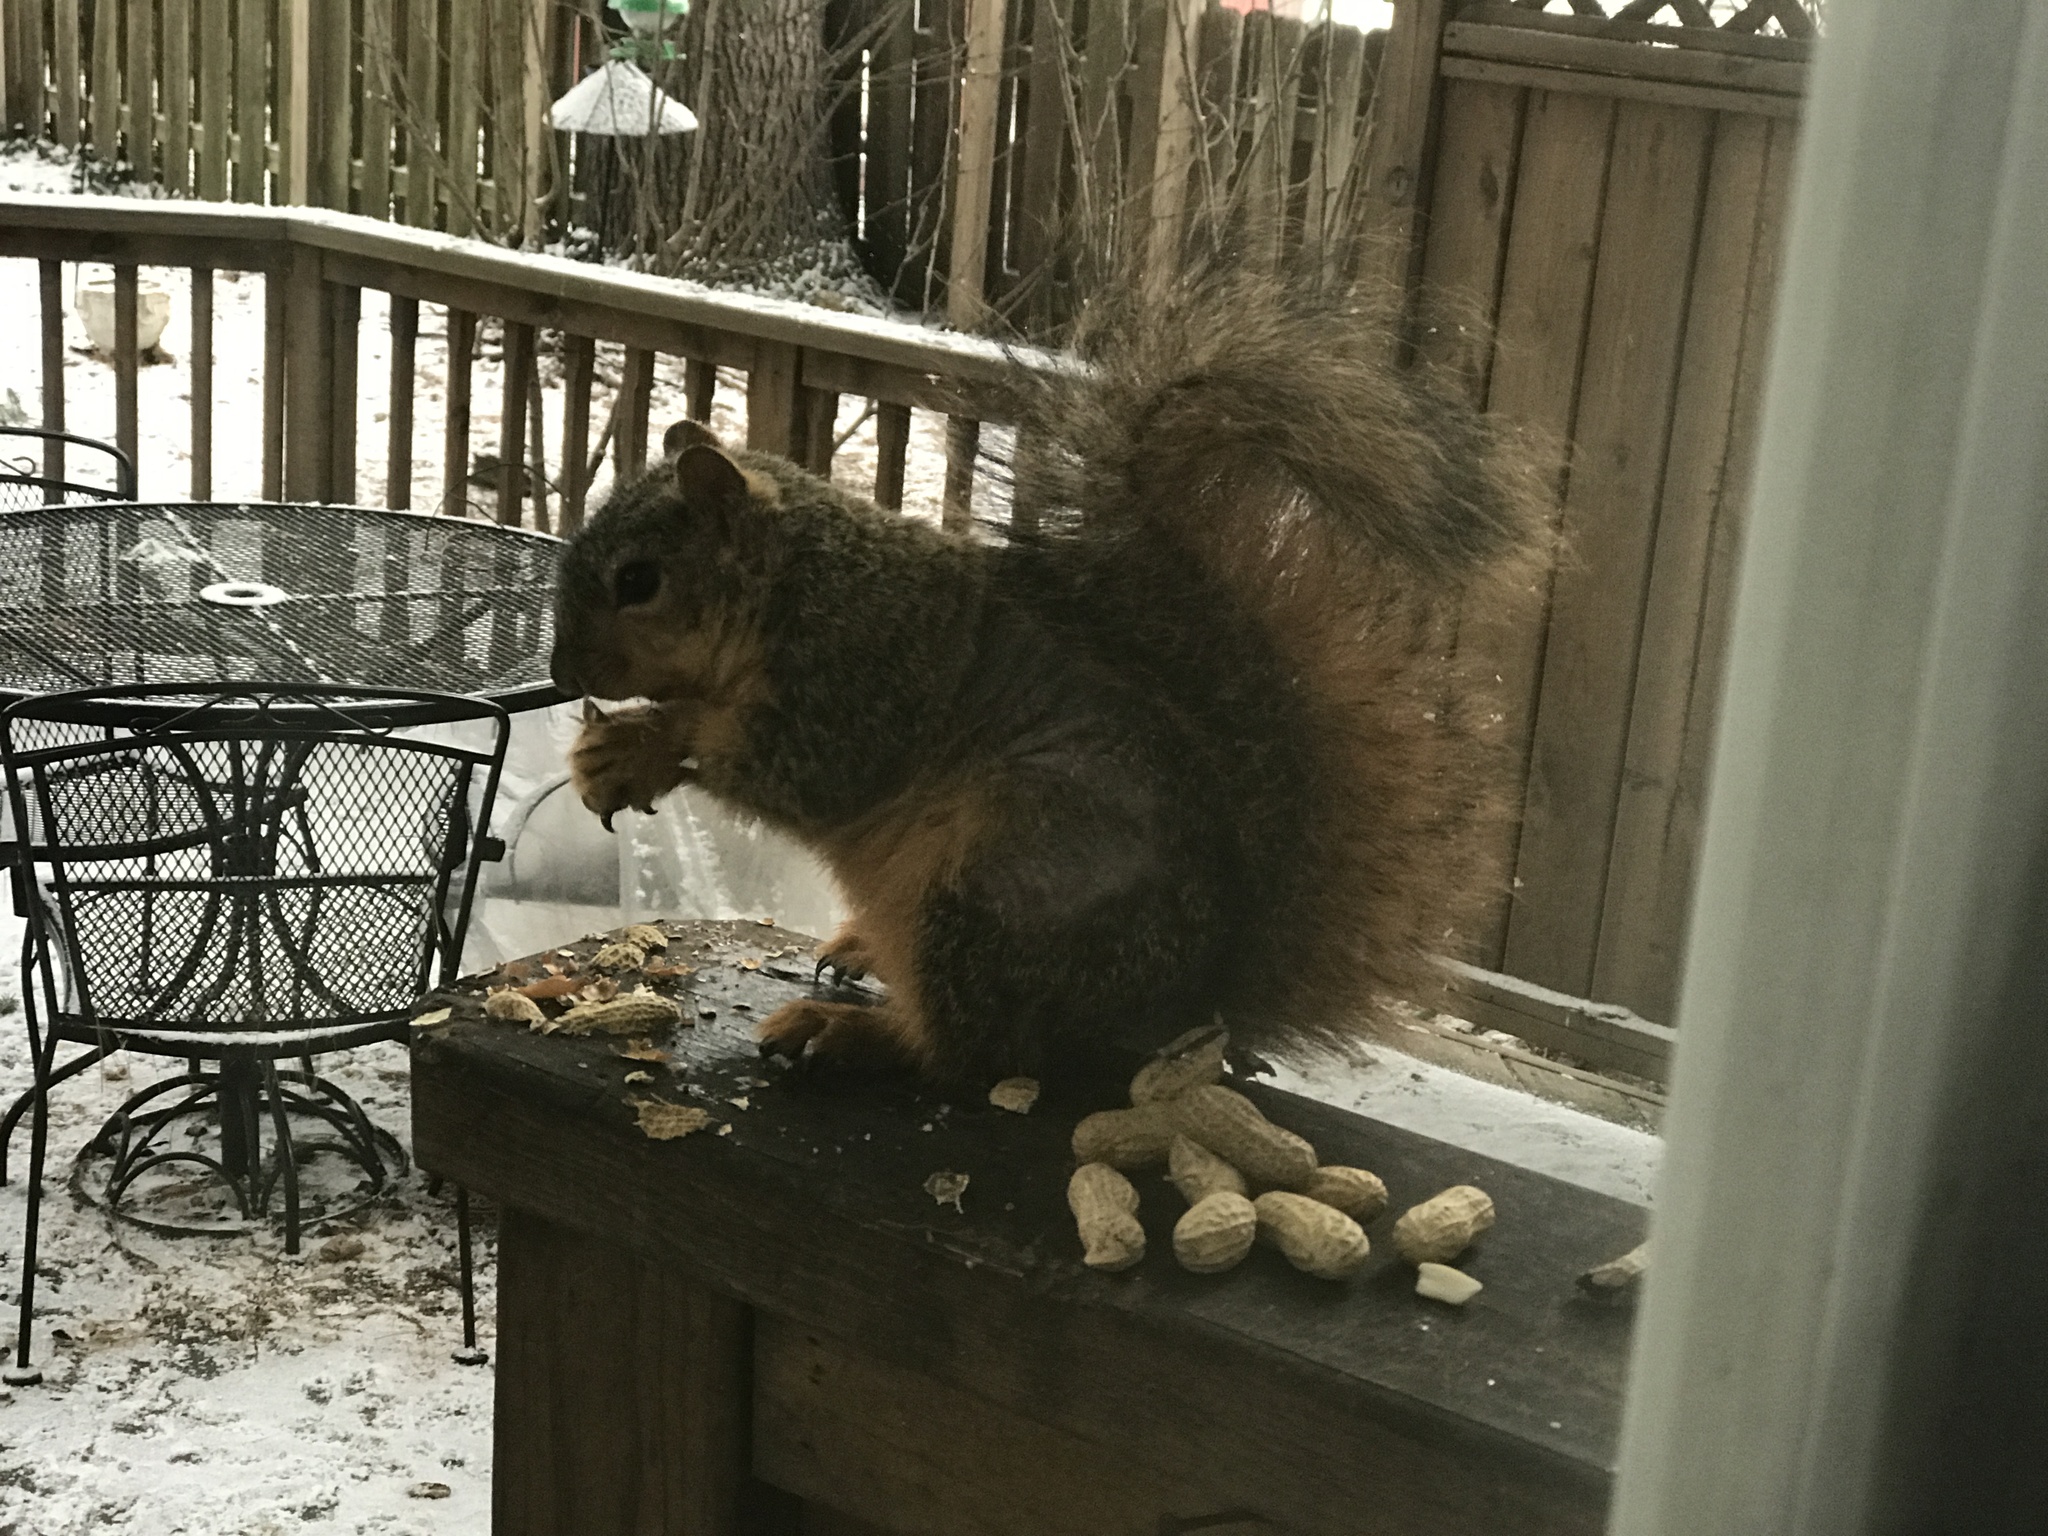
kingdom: Animalia
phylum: Chordata
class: Mammalia
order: Rodentia
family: Sciuridae
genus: Sciurus
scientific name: Sciurus niger
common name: Fox squirrel
